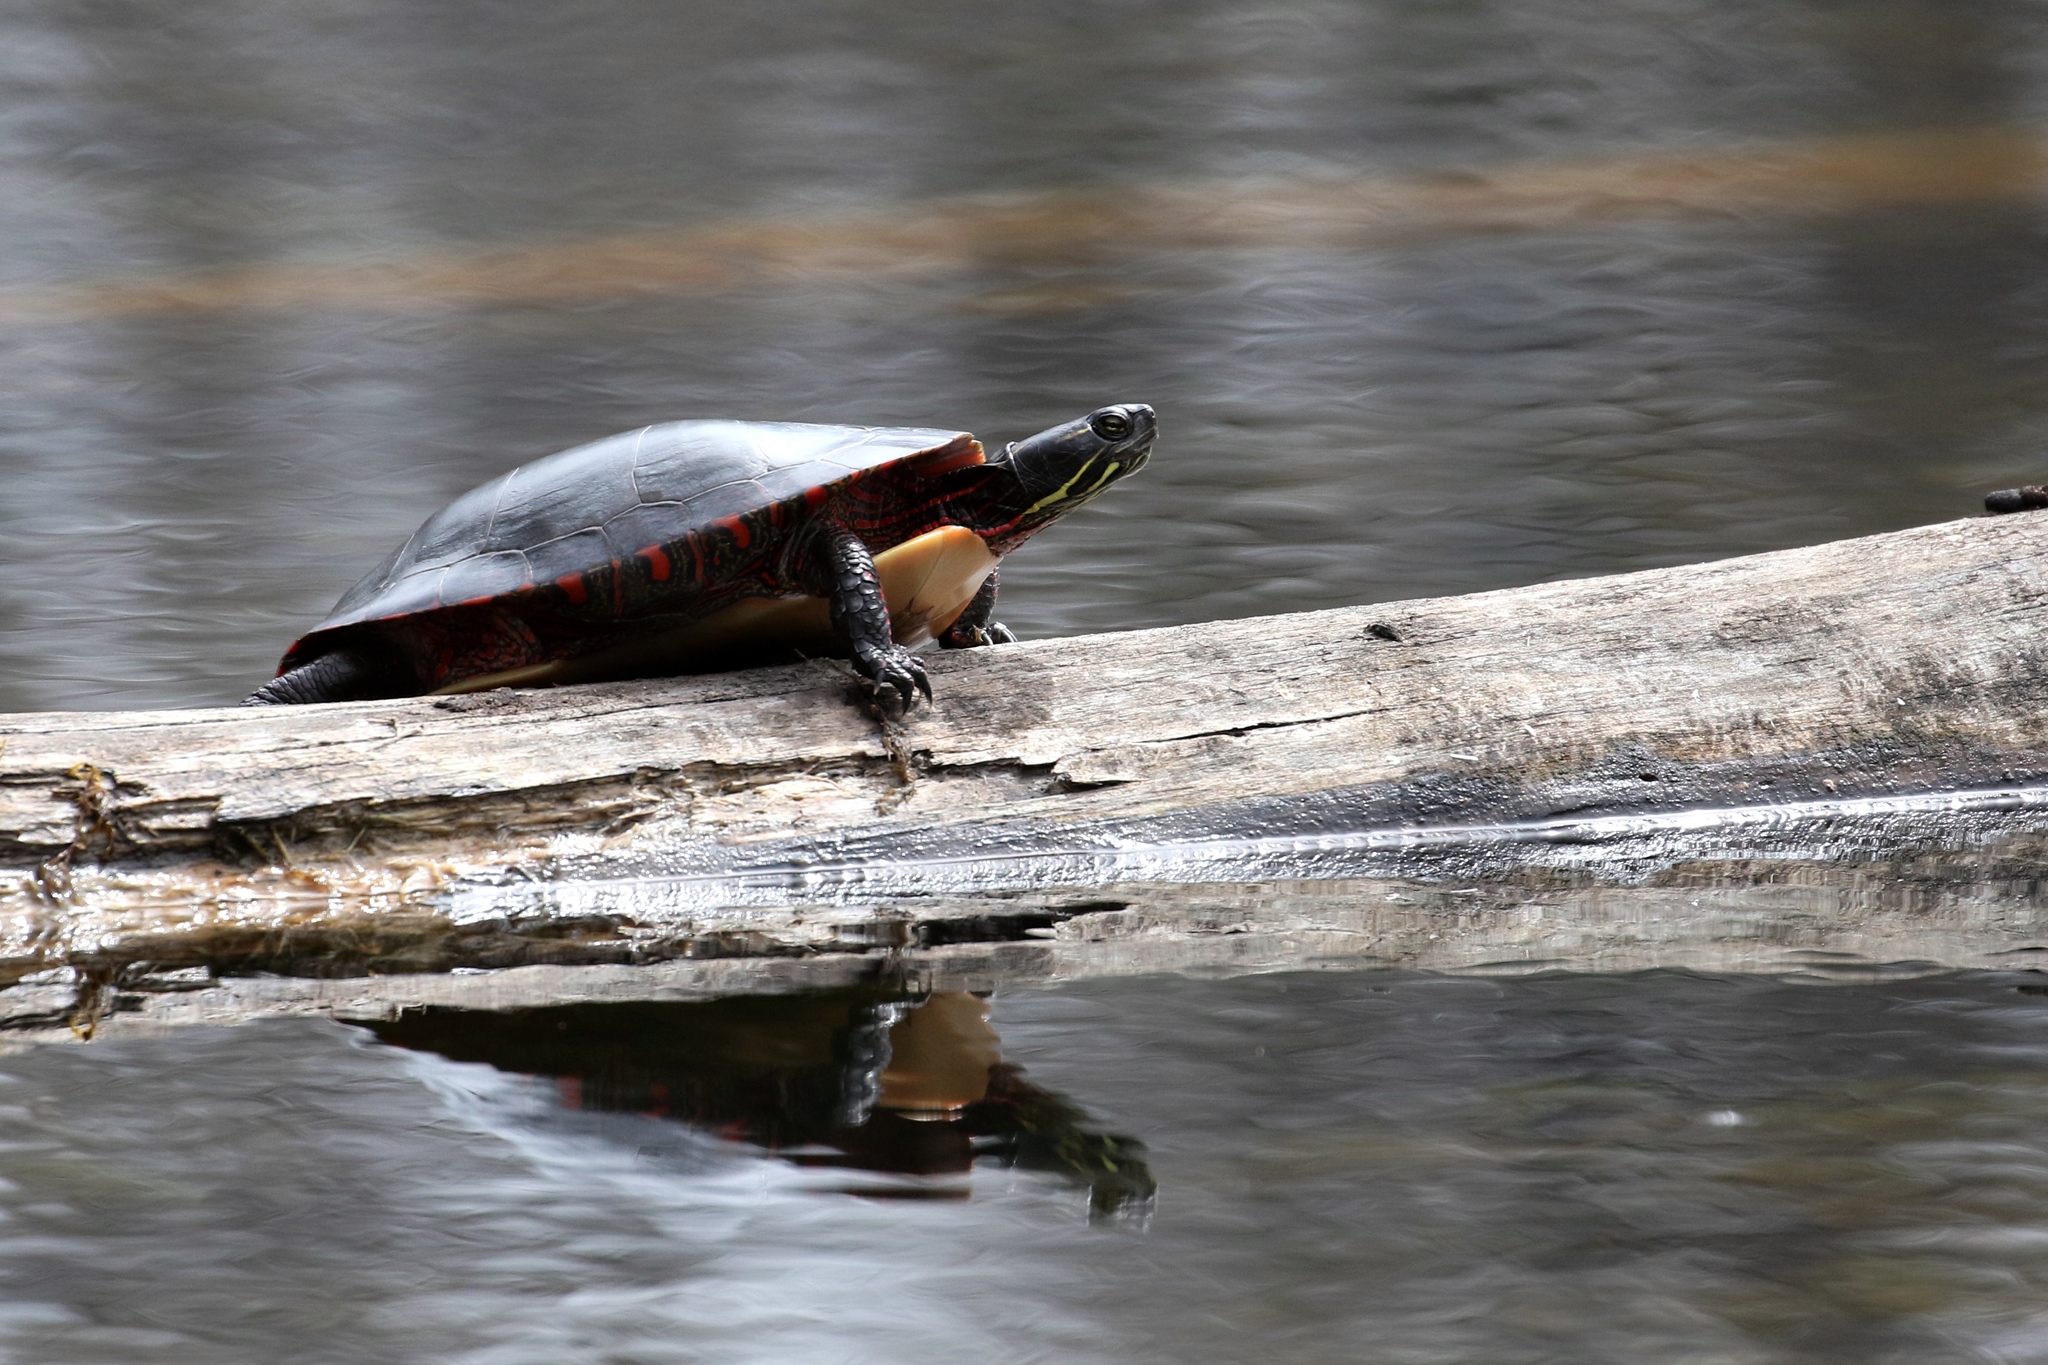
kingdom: Animalia
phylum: Chordata
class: Testudines
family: Emydidae
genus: Chrysemys
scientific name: Chrysemys picta
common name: Painted turtle
